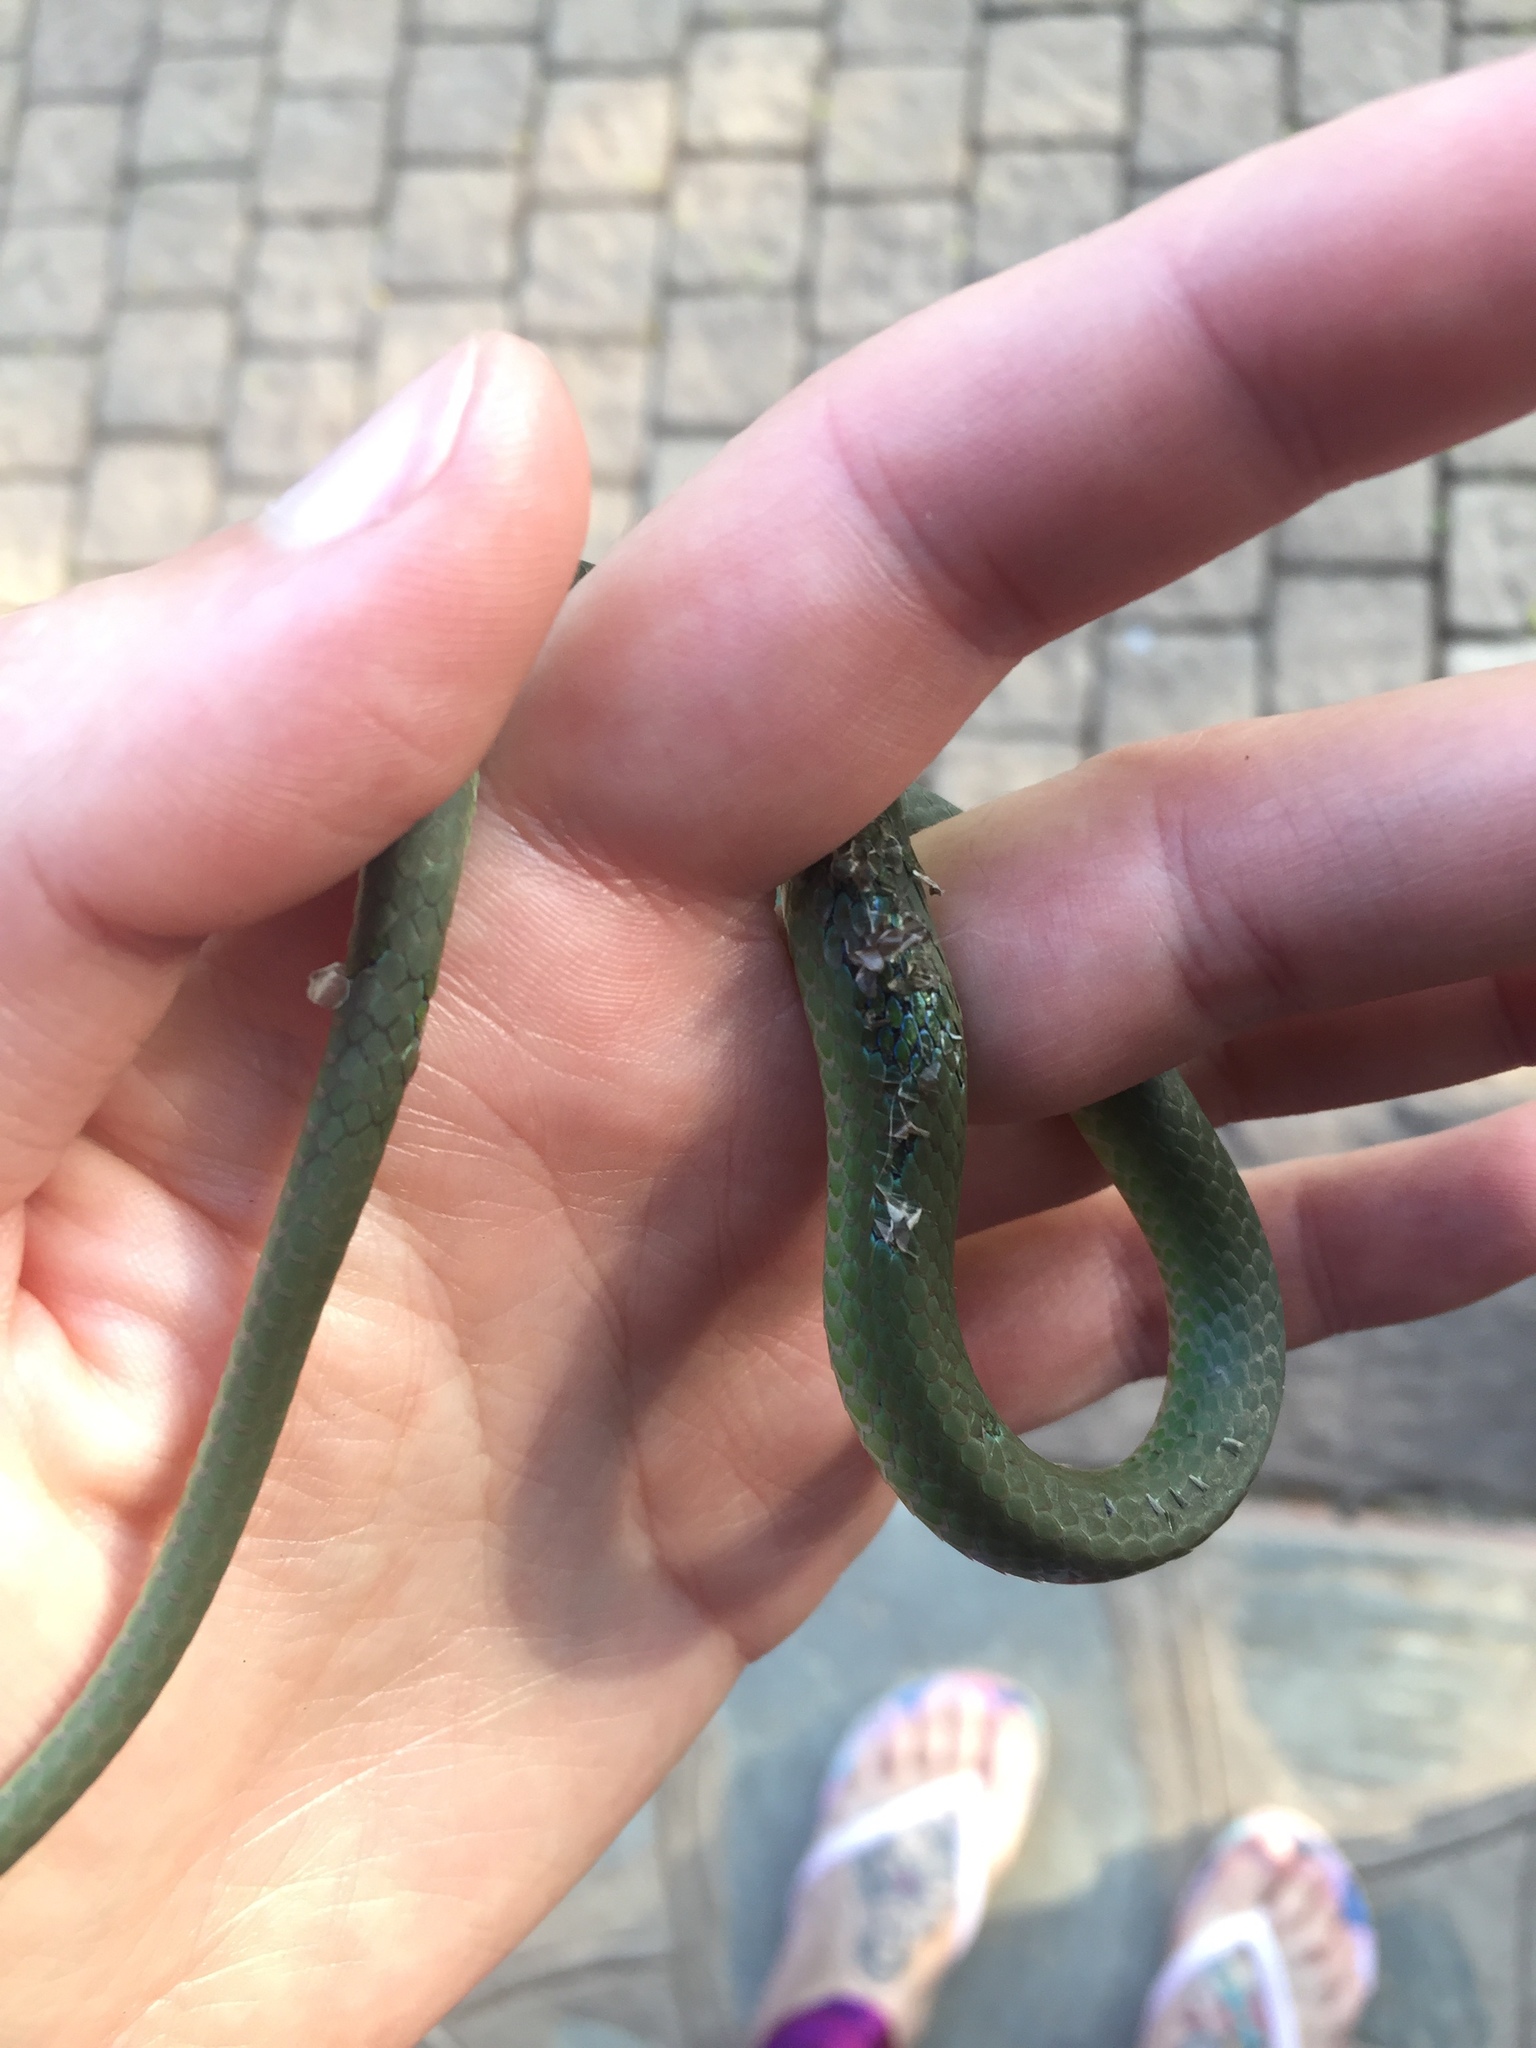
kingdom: Animalia
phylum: Chordata
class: Squamata
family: Colubridae
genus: Philothamnus
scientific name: Philothamnus hoplogaster
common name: Green water snake
